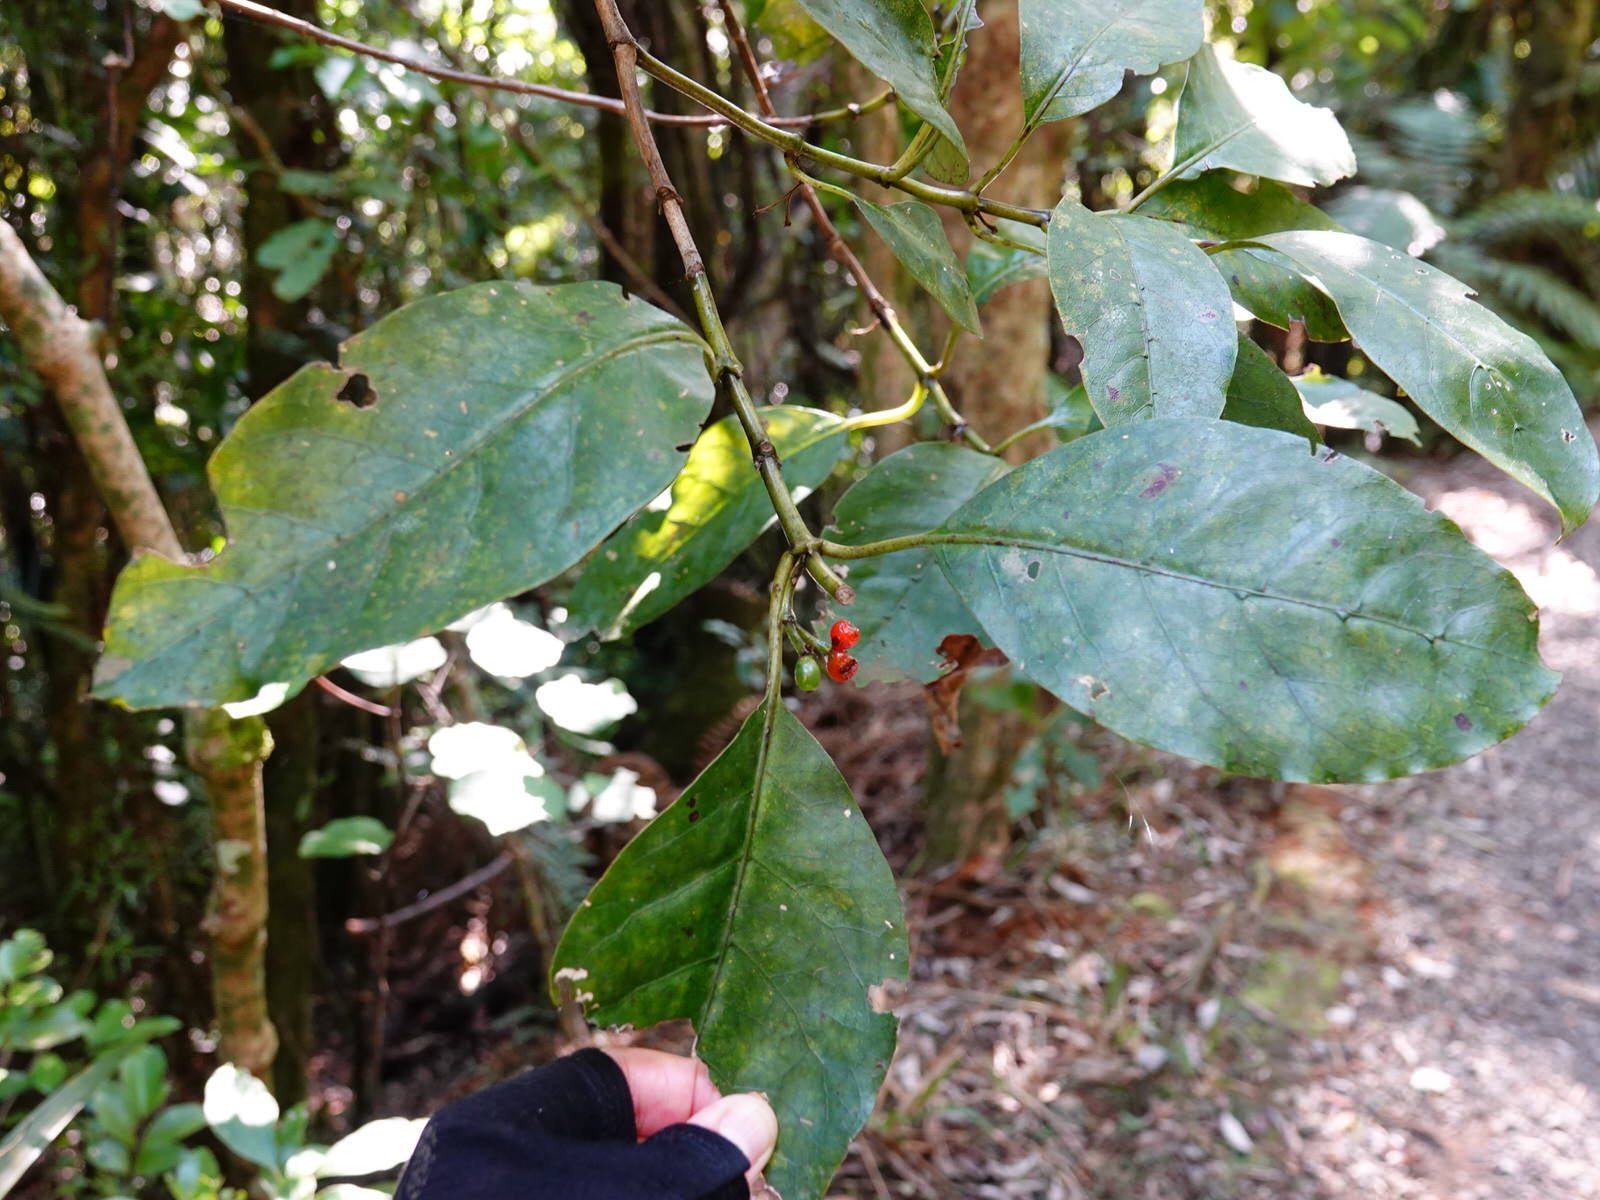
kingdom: Plantae
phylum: Tracheophyta
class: Magnoliopsida
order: Gentianales
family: Rubiaceae
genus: Coprosma
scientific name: Coprosma autumnalis
